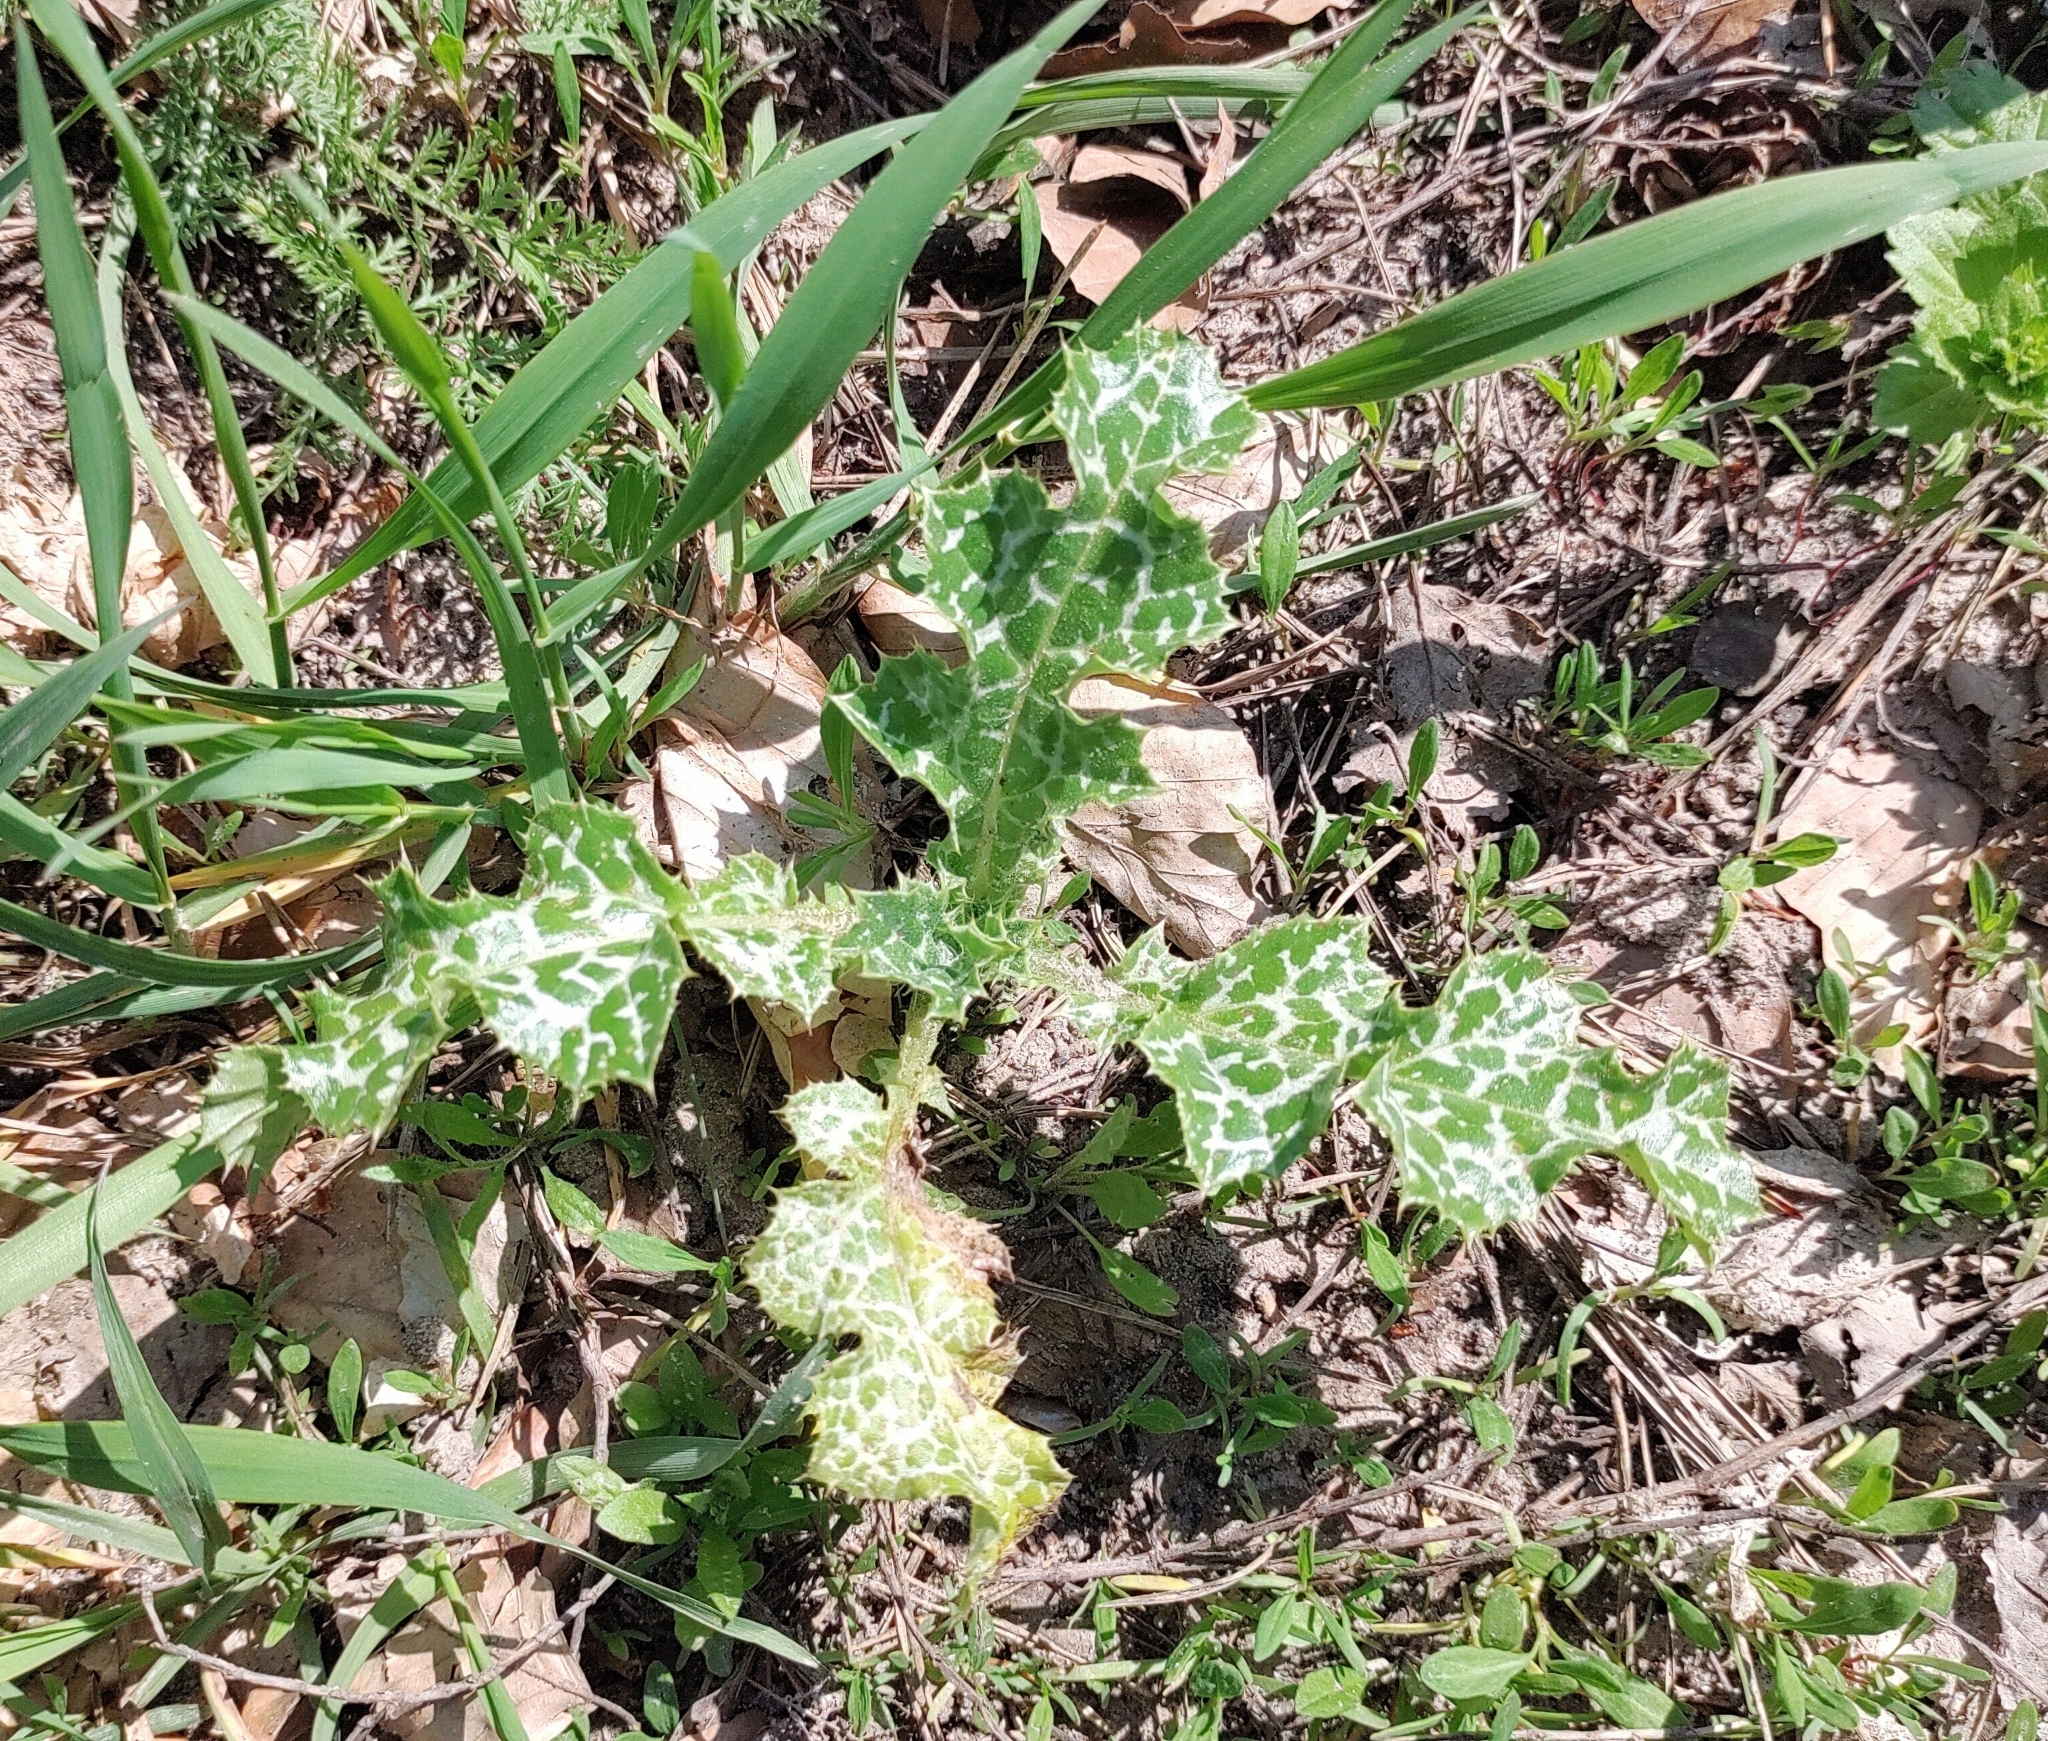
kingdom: Plantae
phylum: Tracheophyta
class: Magnoliopsida
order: Asterales
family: Asteraceae
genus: Silybum
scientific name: Silybum marianum
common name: Milk thistle
